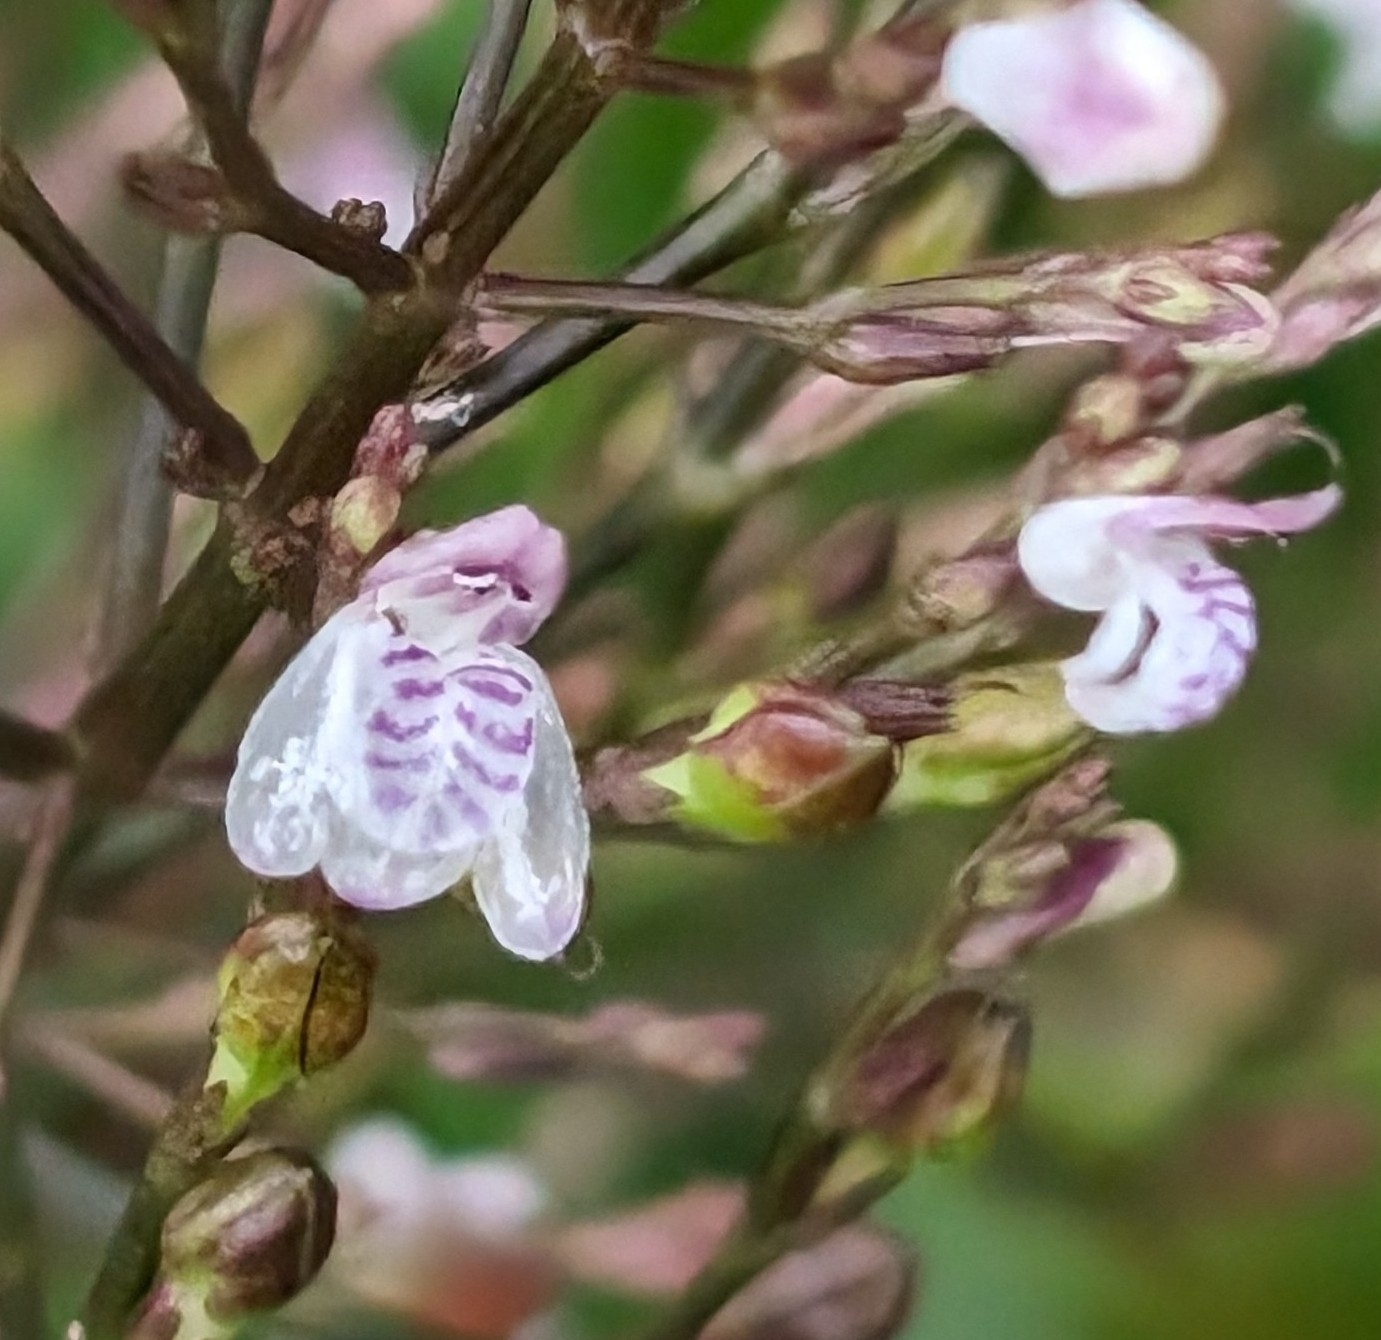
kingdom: Plantae
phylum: Tracheophyta
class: Magnoliopsida
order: Lamiales
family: Acanthaceae
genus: Justicia
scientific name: Justicia comata
